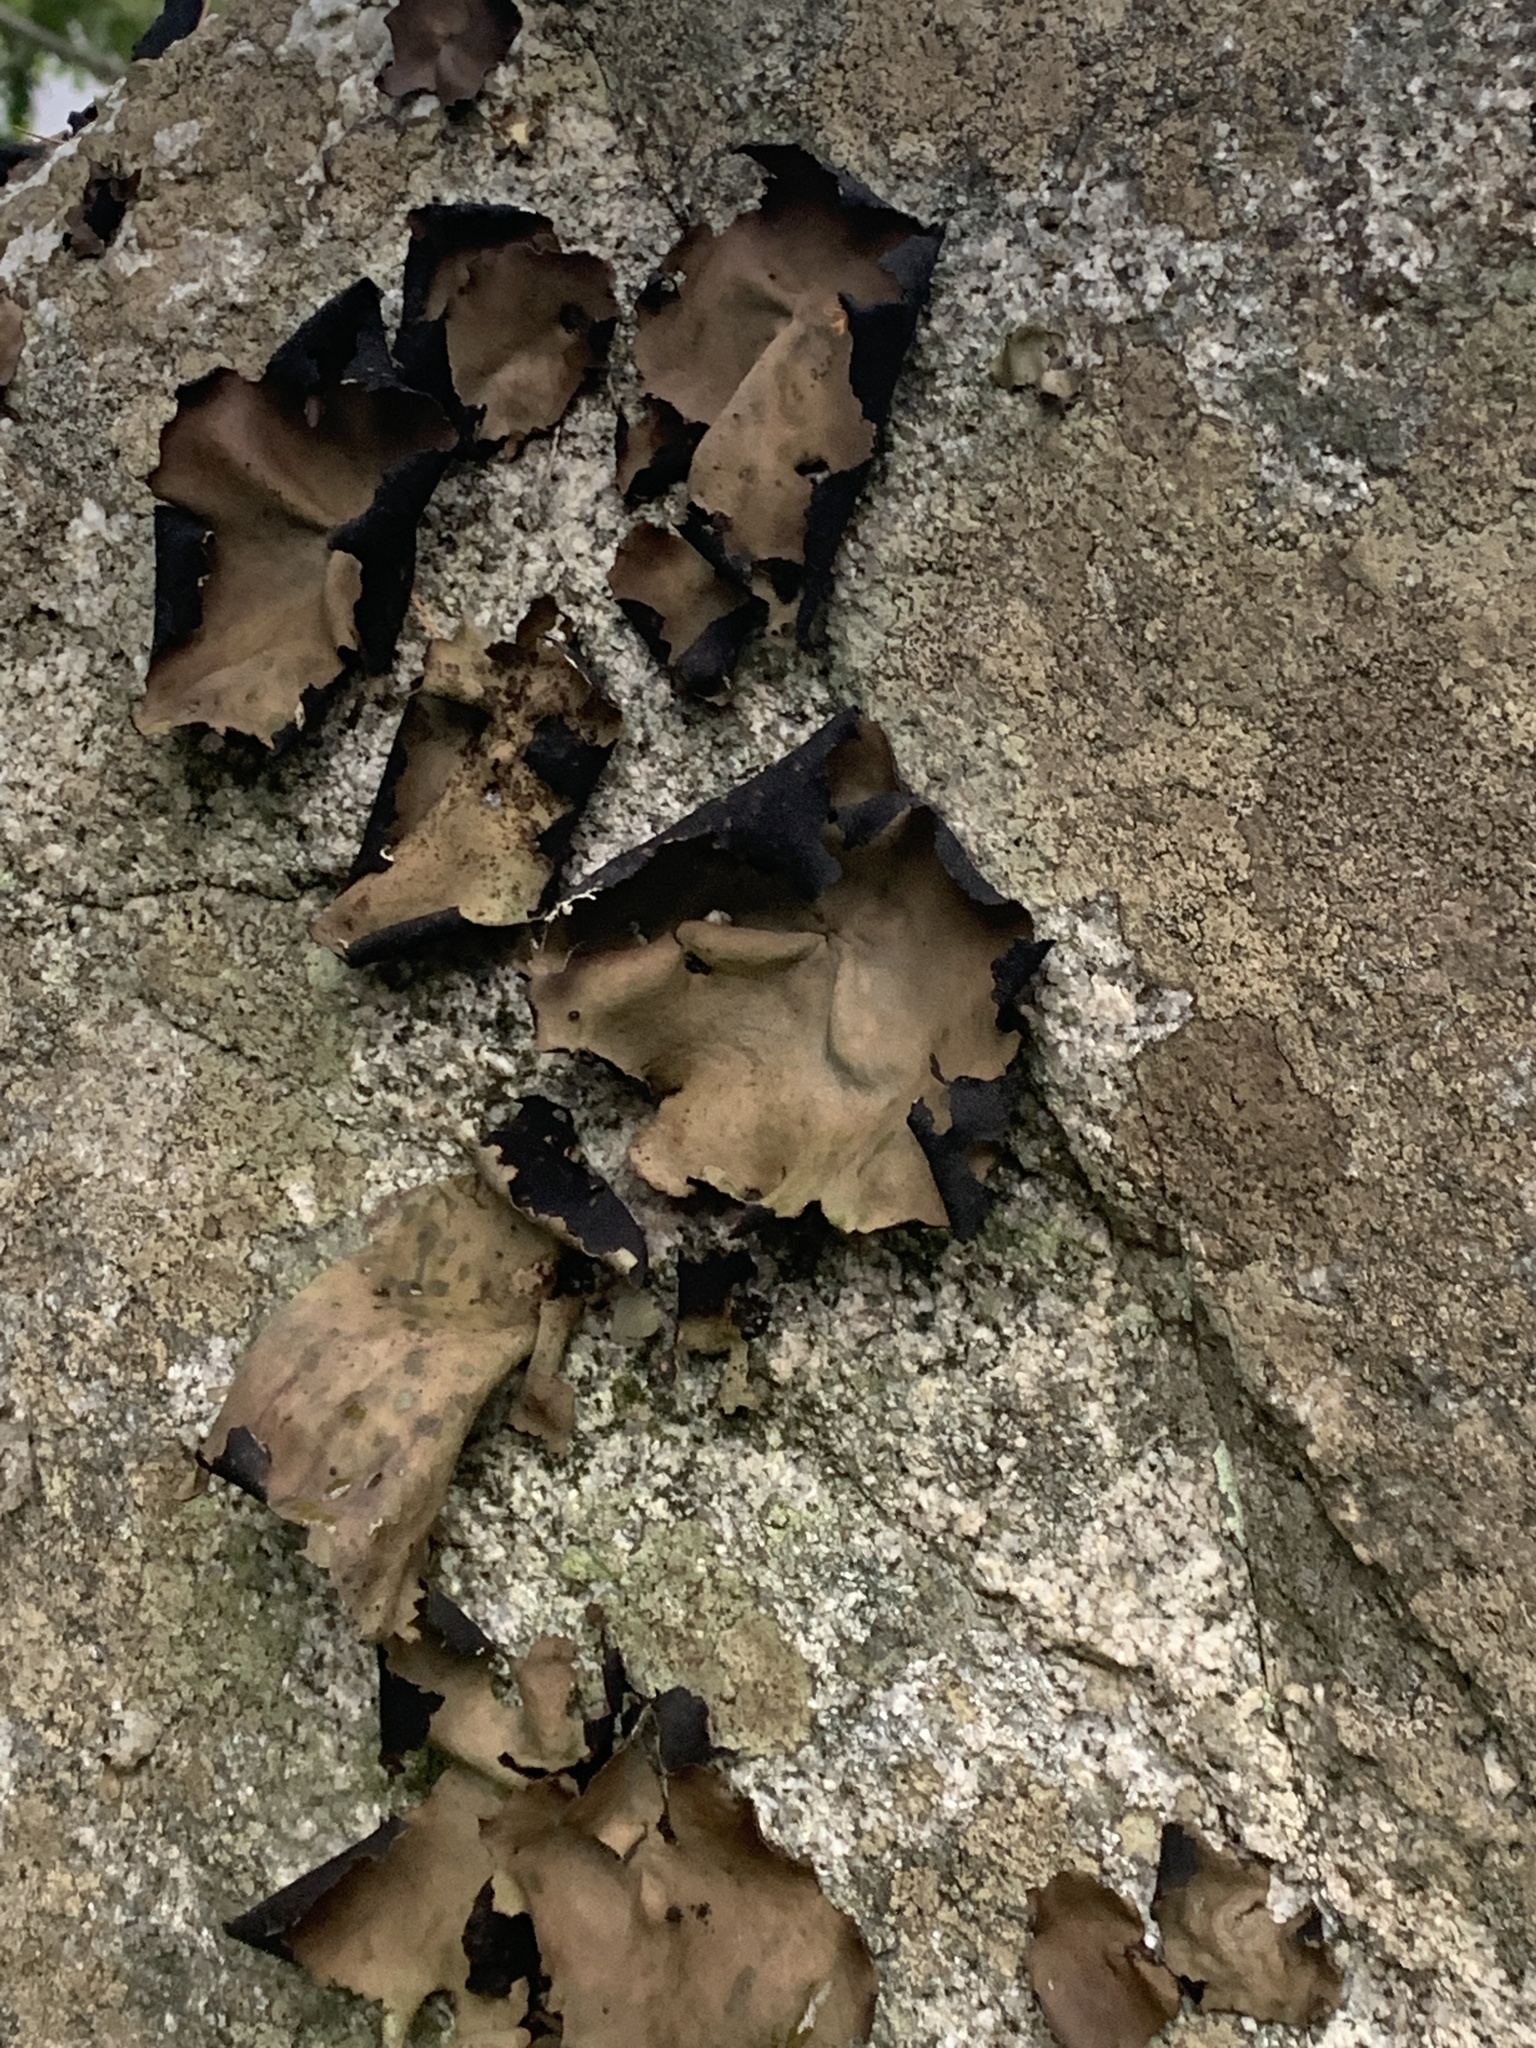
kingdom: Fungi
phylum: Ascomycota
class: Lecanoromycetes
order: Umbilicariales
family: Umbilicariaceae
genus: Umbilicaria
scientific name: Umbilicaria mammulata
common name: Smooth rock tripe
